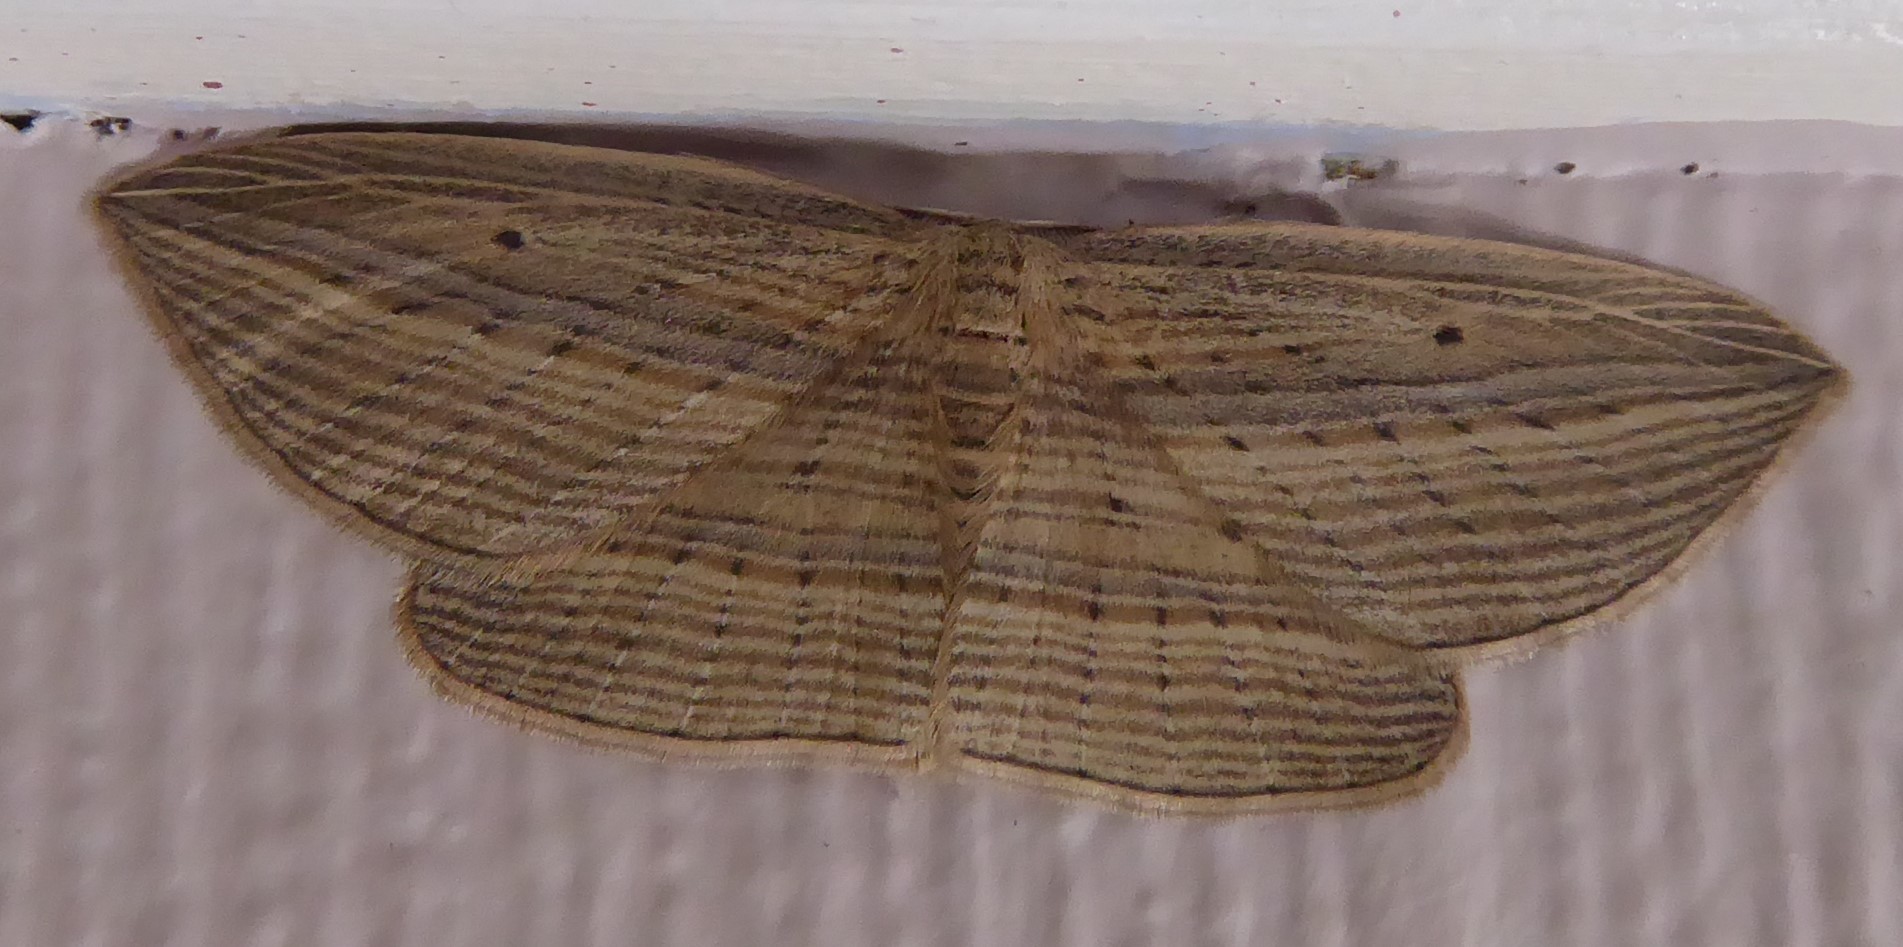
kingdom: Animalia
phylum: Arthropoda
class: Insecta
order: Lepidoptera
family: Geometridae
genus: Epiphryne
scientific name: Epiphryne verriculata
